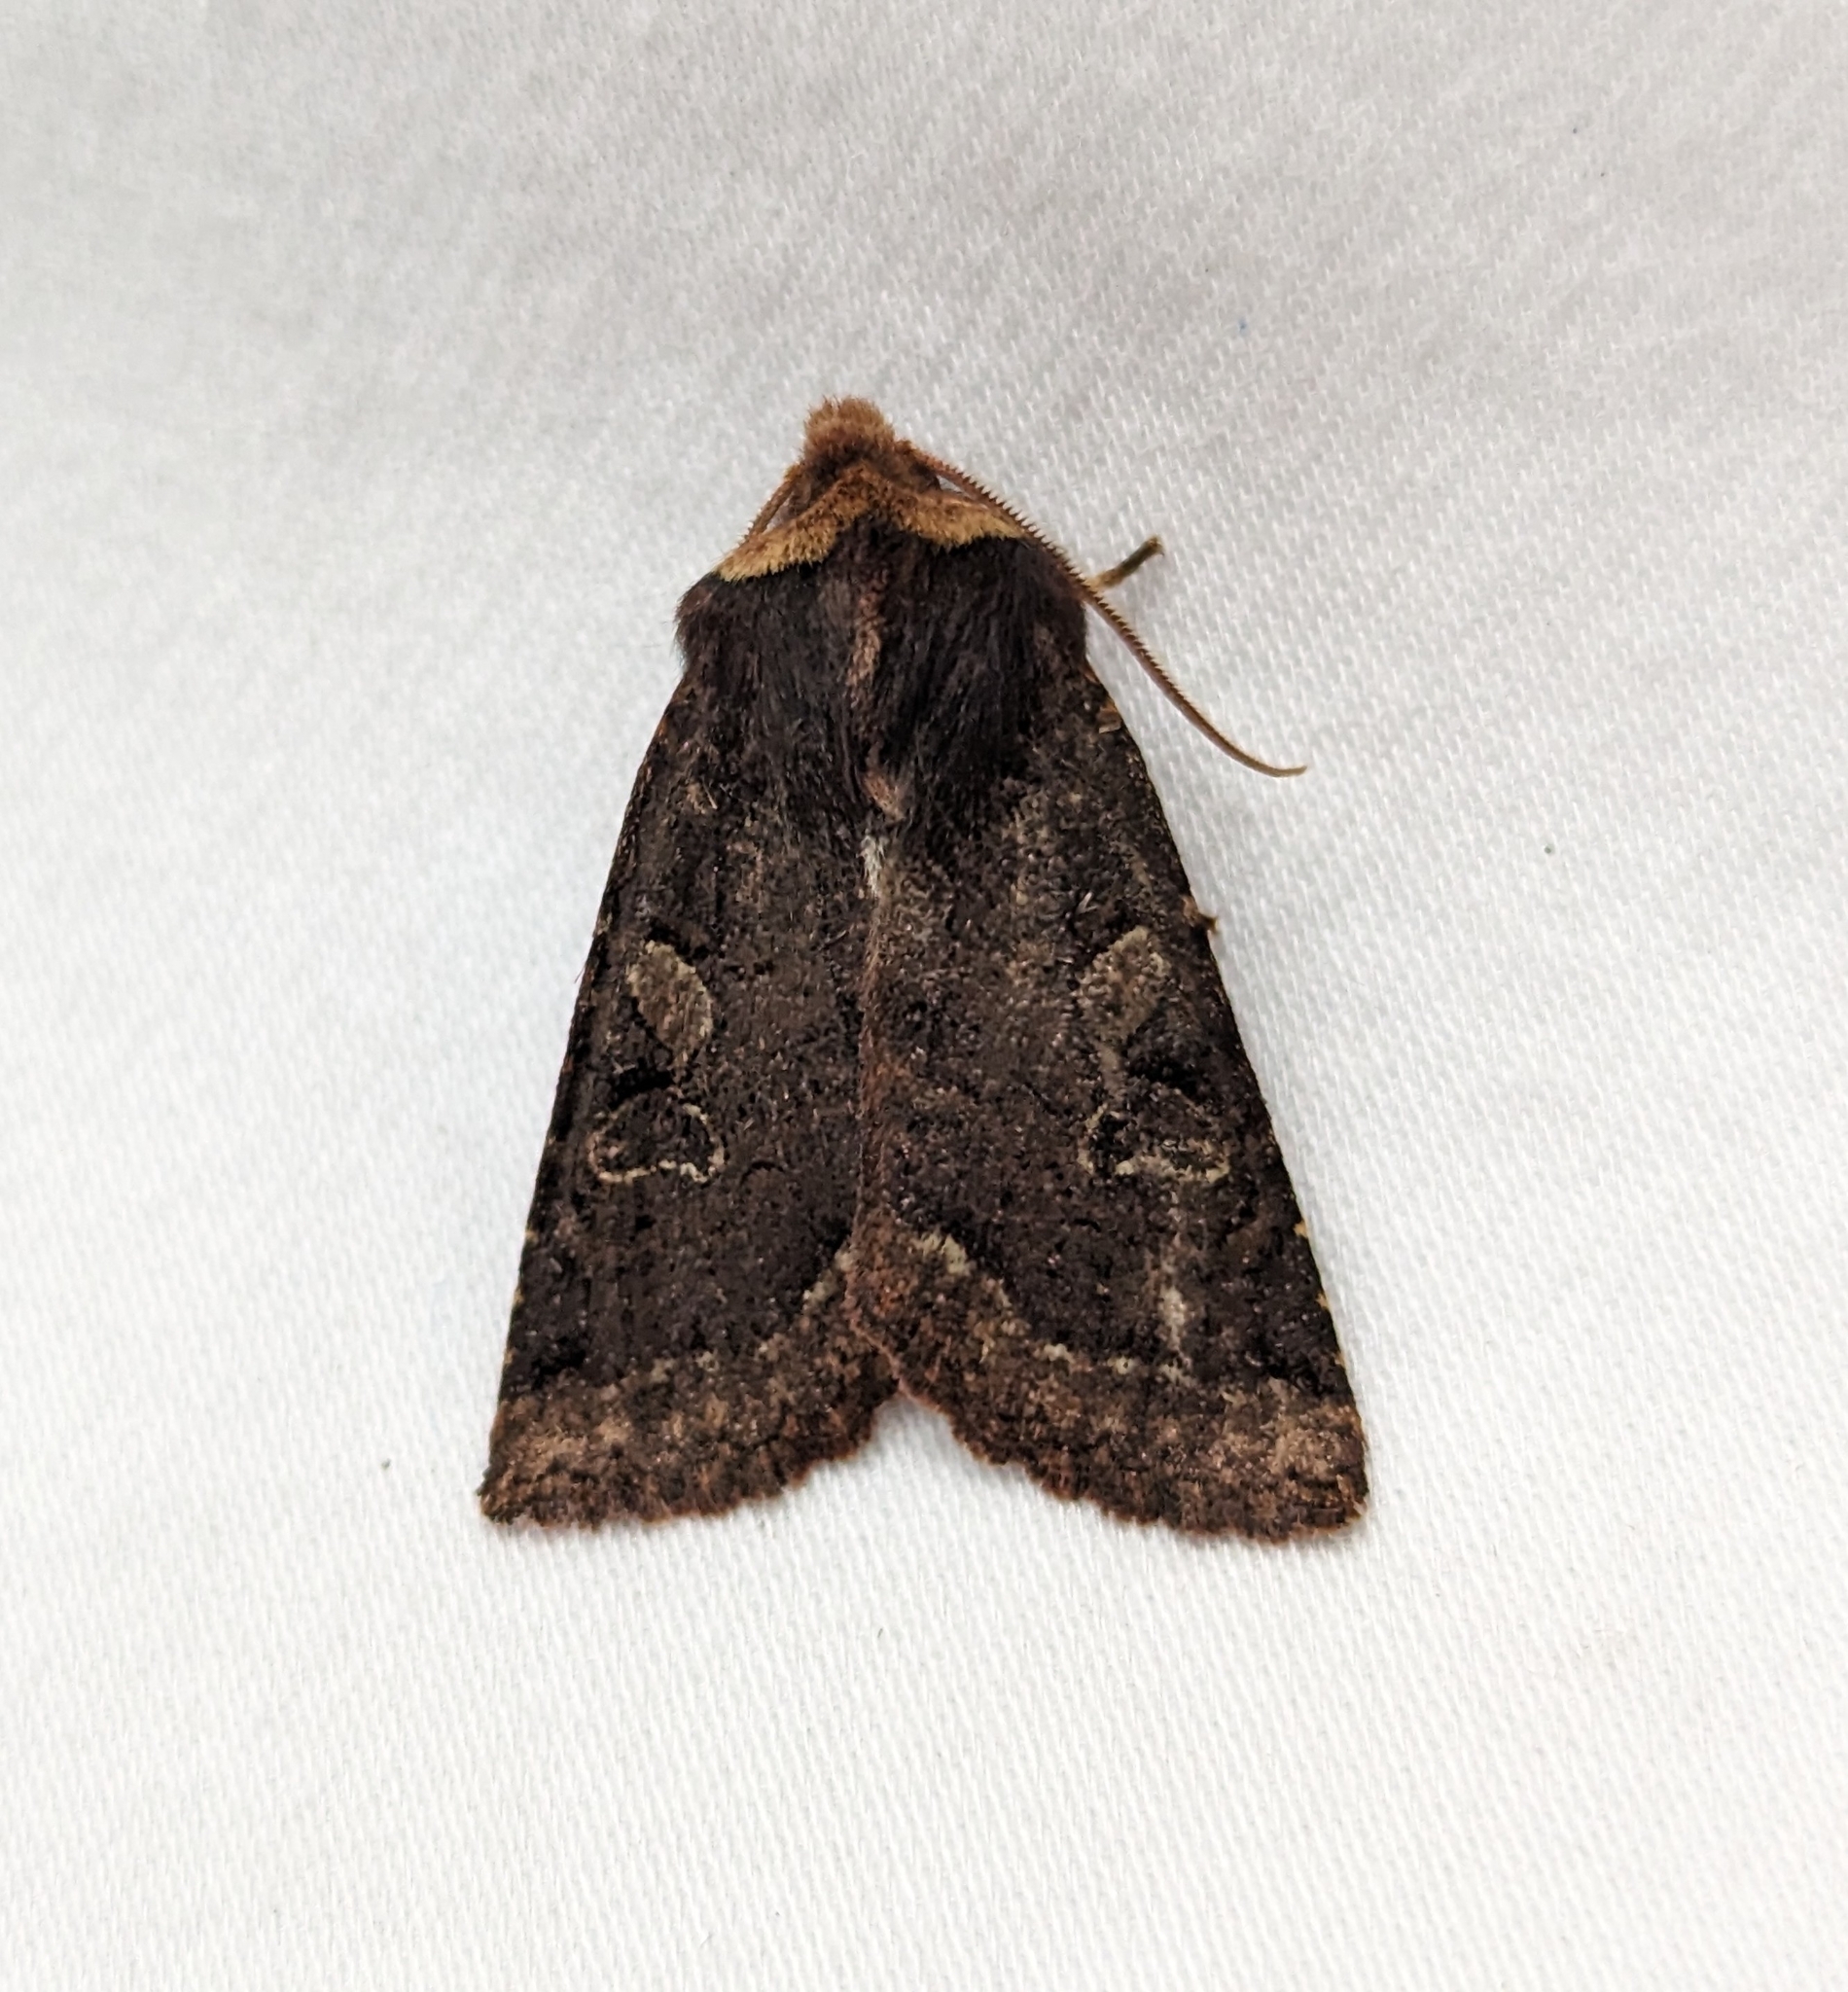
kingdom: Animalia
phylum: Arthropoda
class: Insecta
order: Lepidoptera
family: Noctuidae
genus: Orthosia
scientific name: Orthosia praeses
